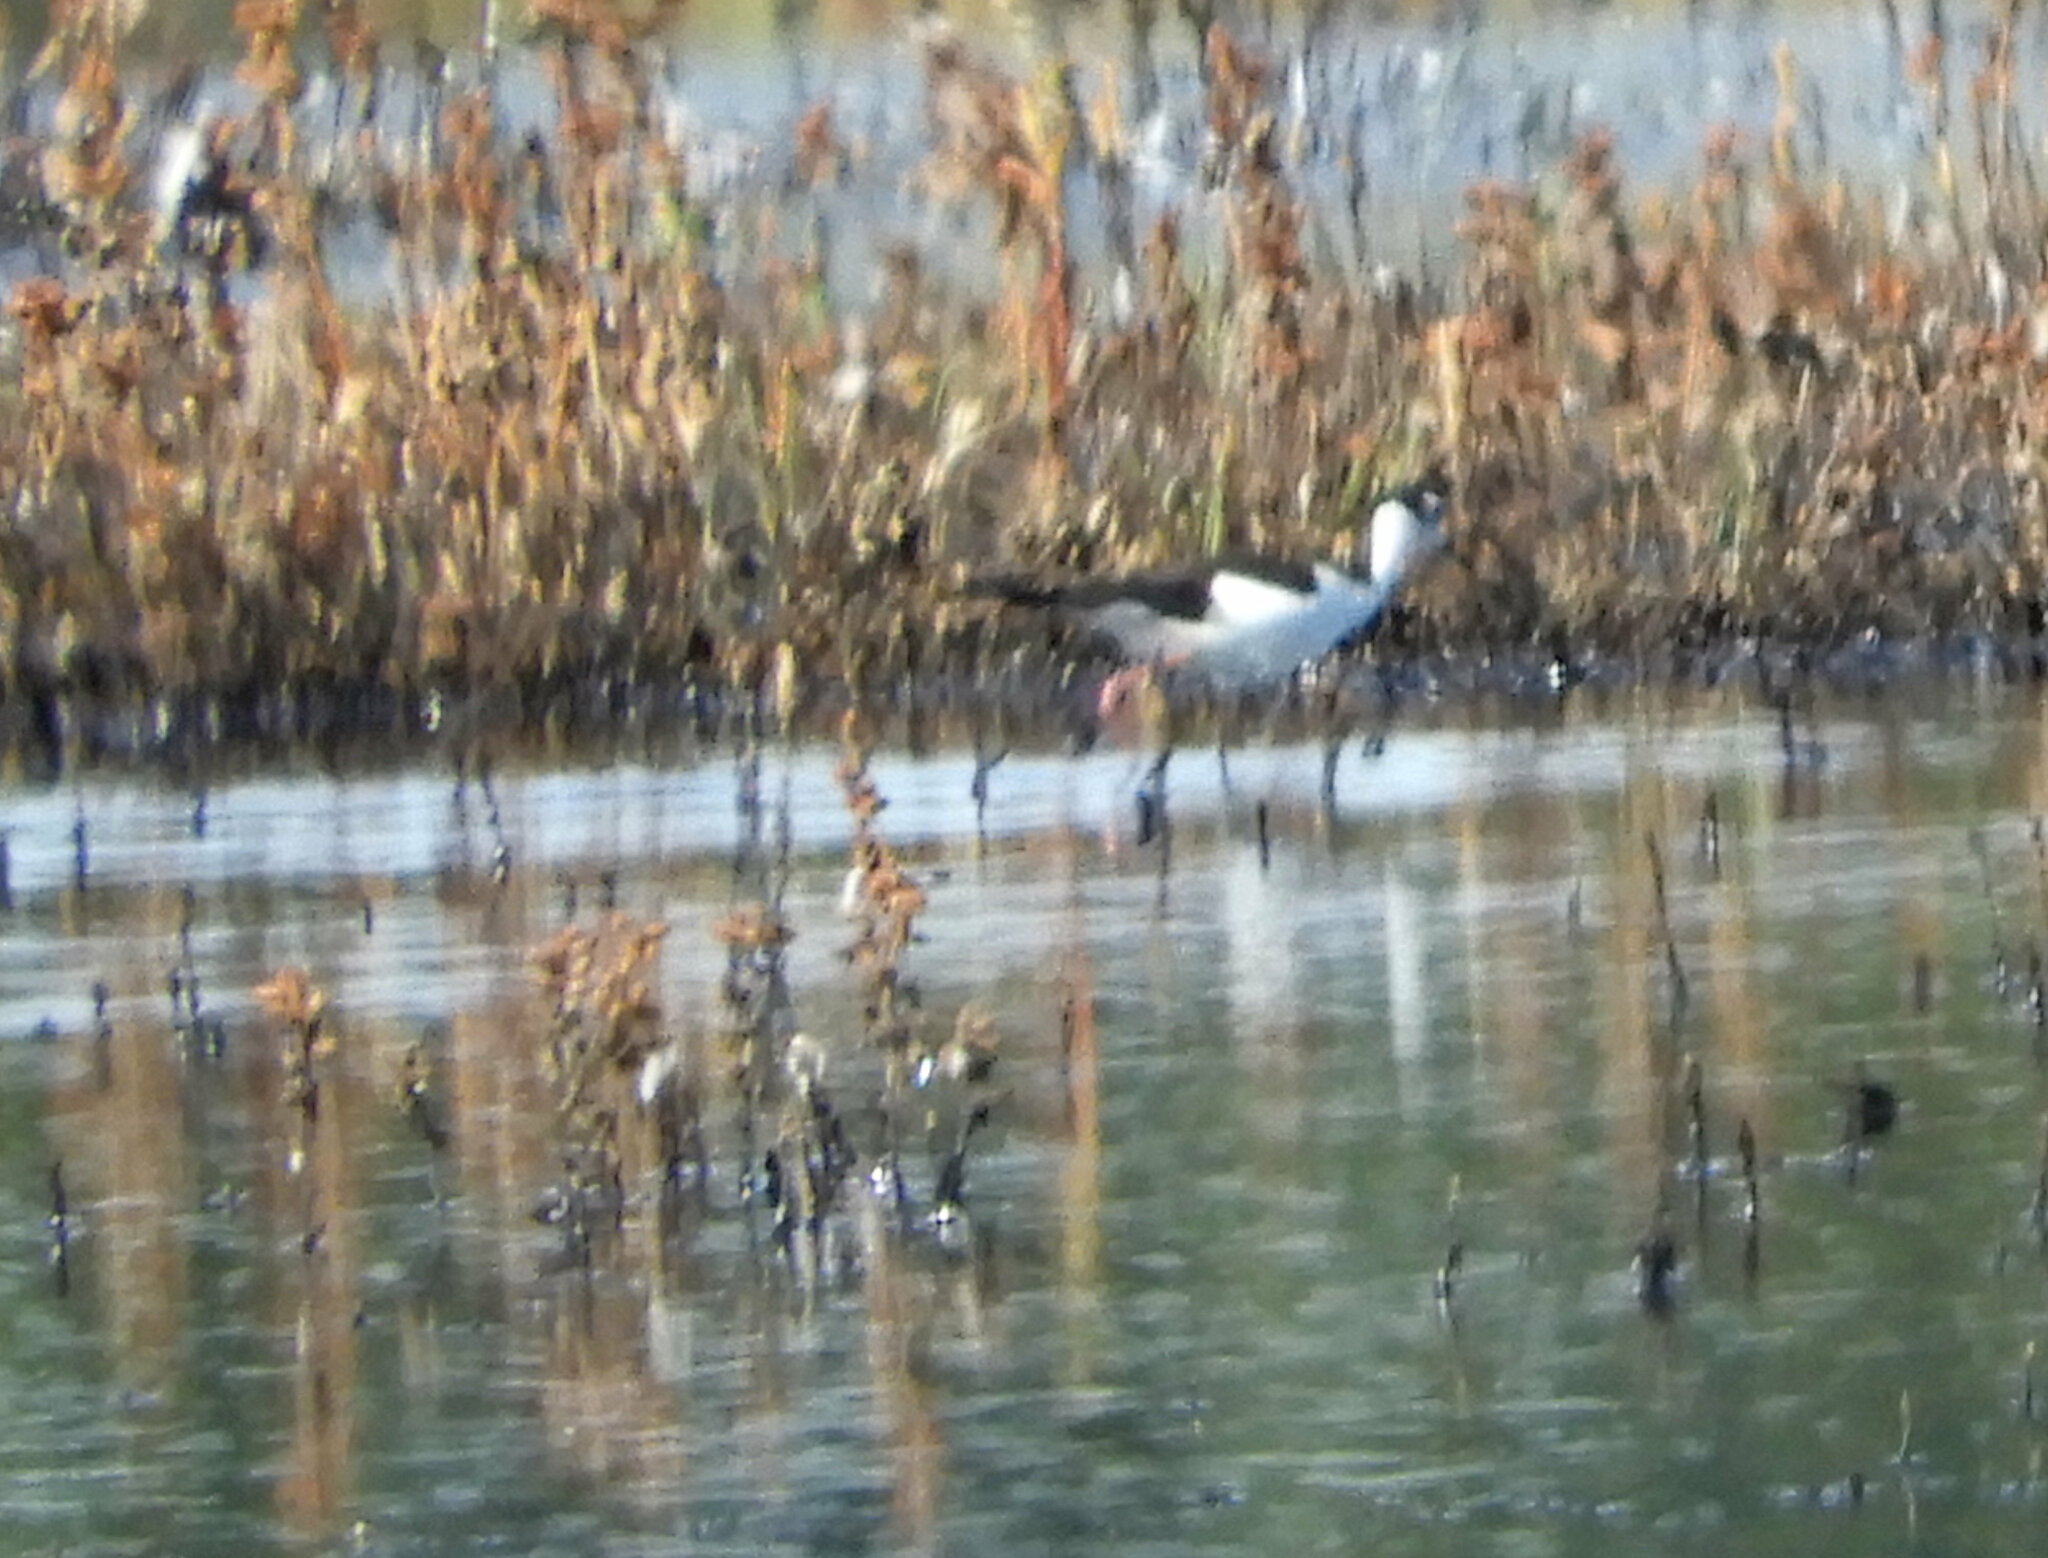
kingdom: Animalia
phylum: Chordata
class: Aves
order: Charadriiformes
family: Recurvirostridae
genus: Himantopus
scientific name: Himantopus mexicanus
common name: Black-necked stilt
